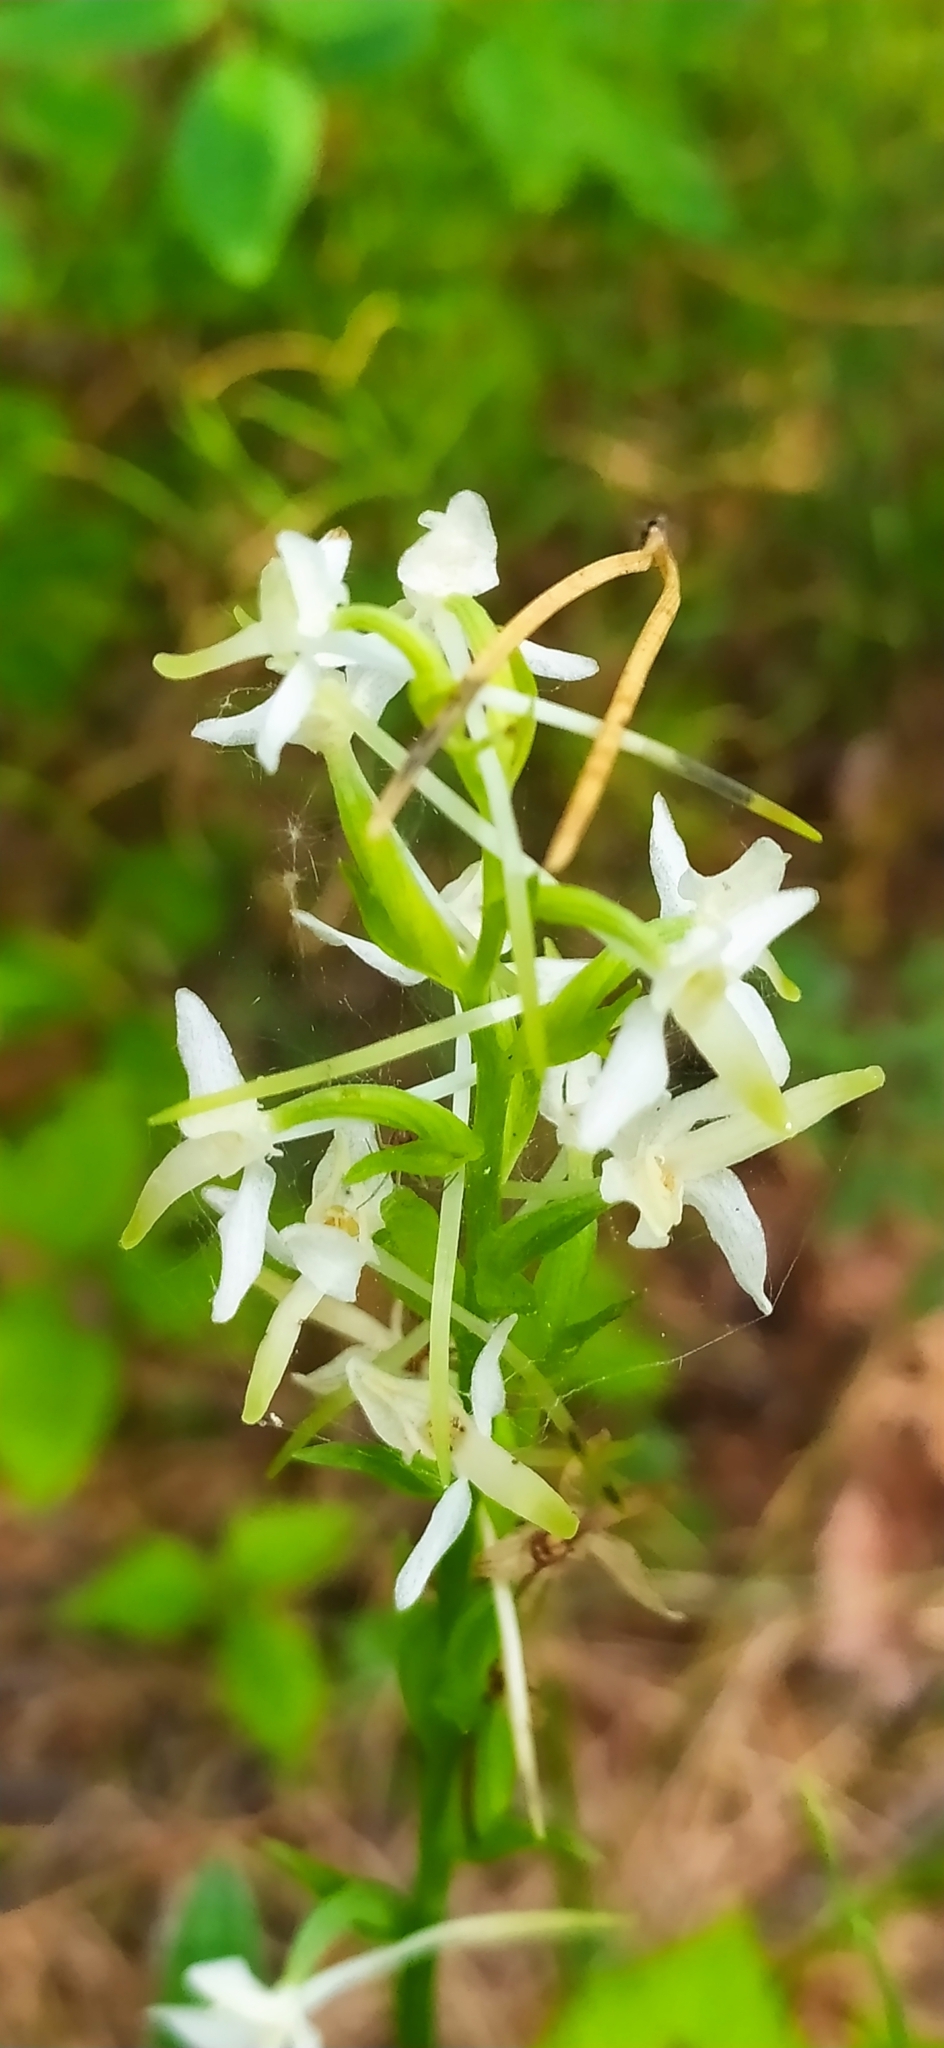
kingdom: Plantae
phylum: Tracheophyta
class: Liliopsida
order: Asparagales
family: Orchidaceae
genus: Platanthera
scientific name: Platanthera bifolia
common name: Lesser butterfly-orchid
